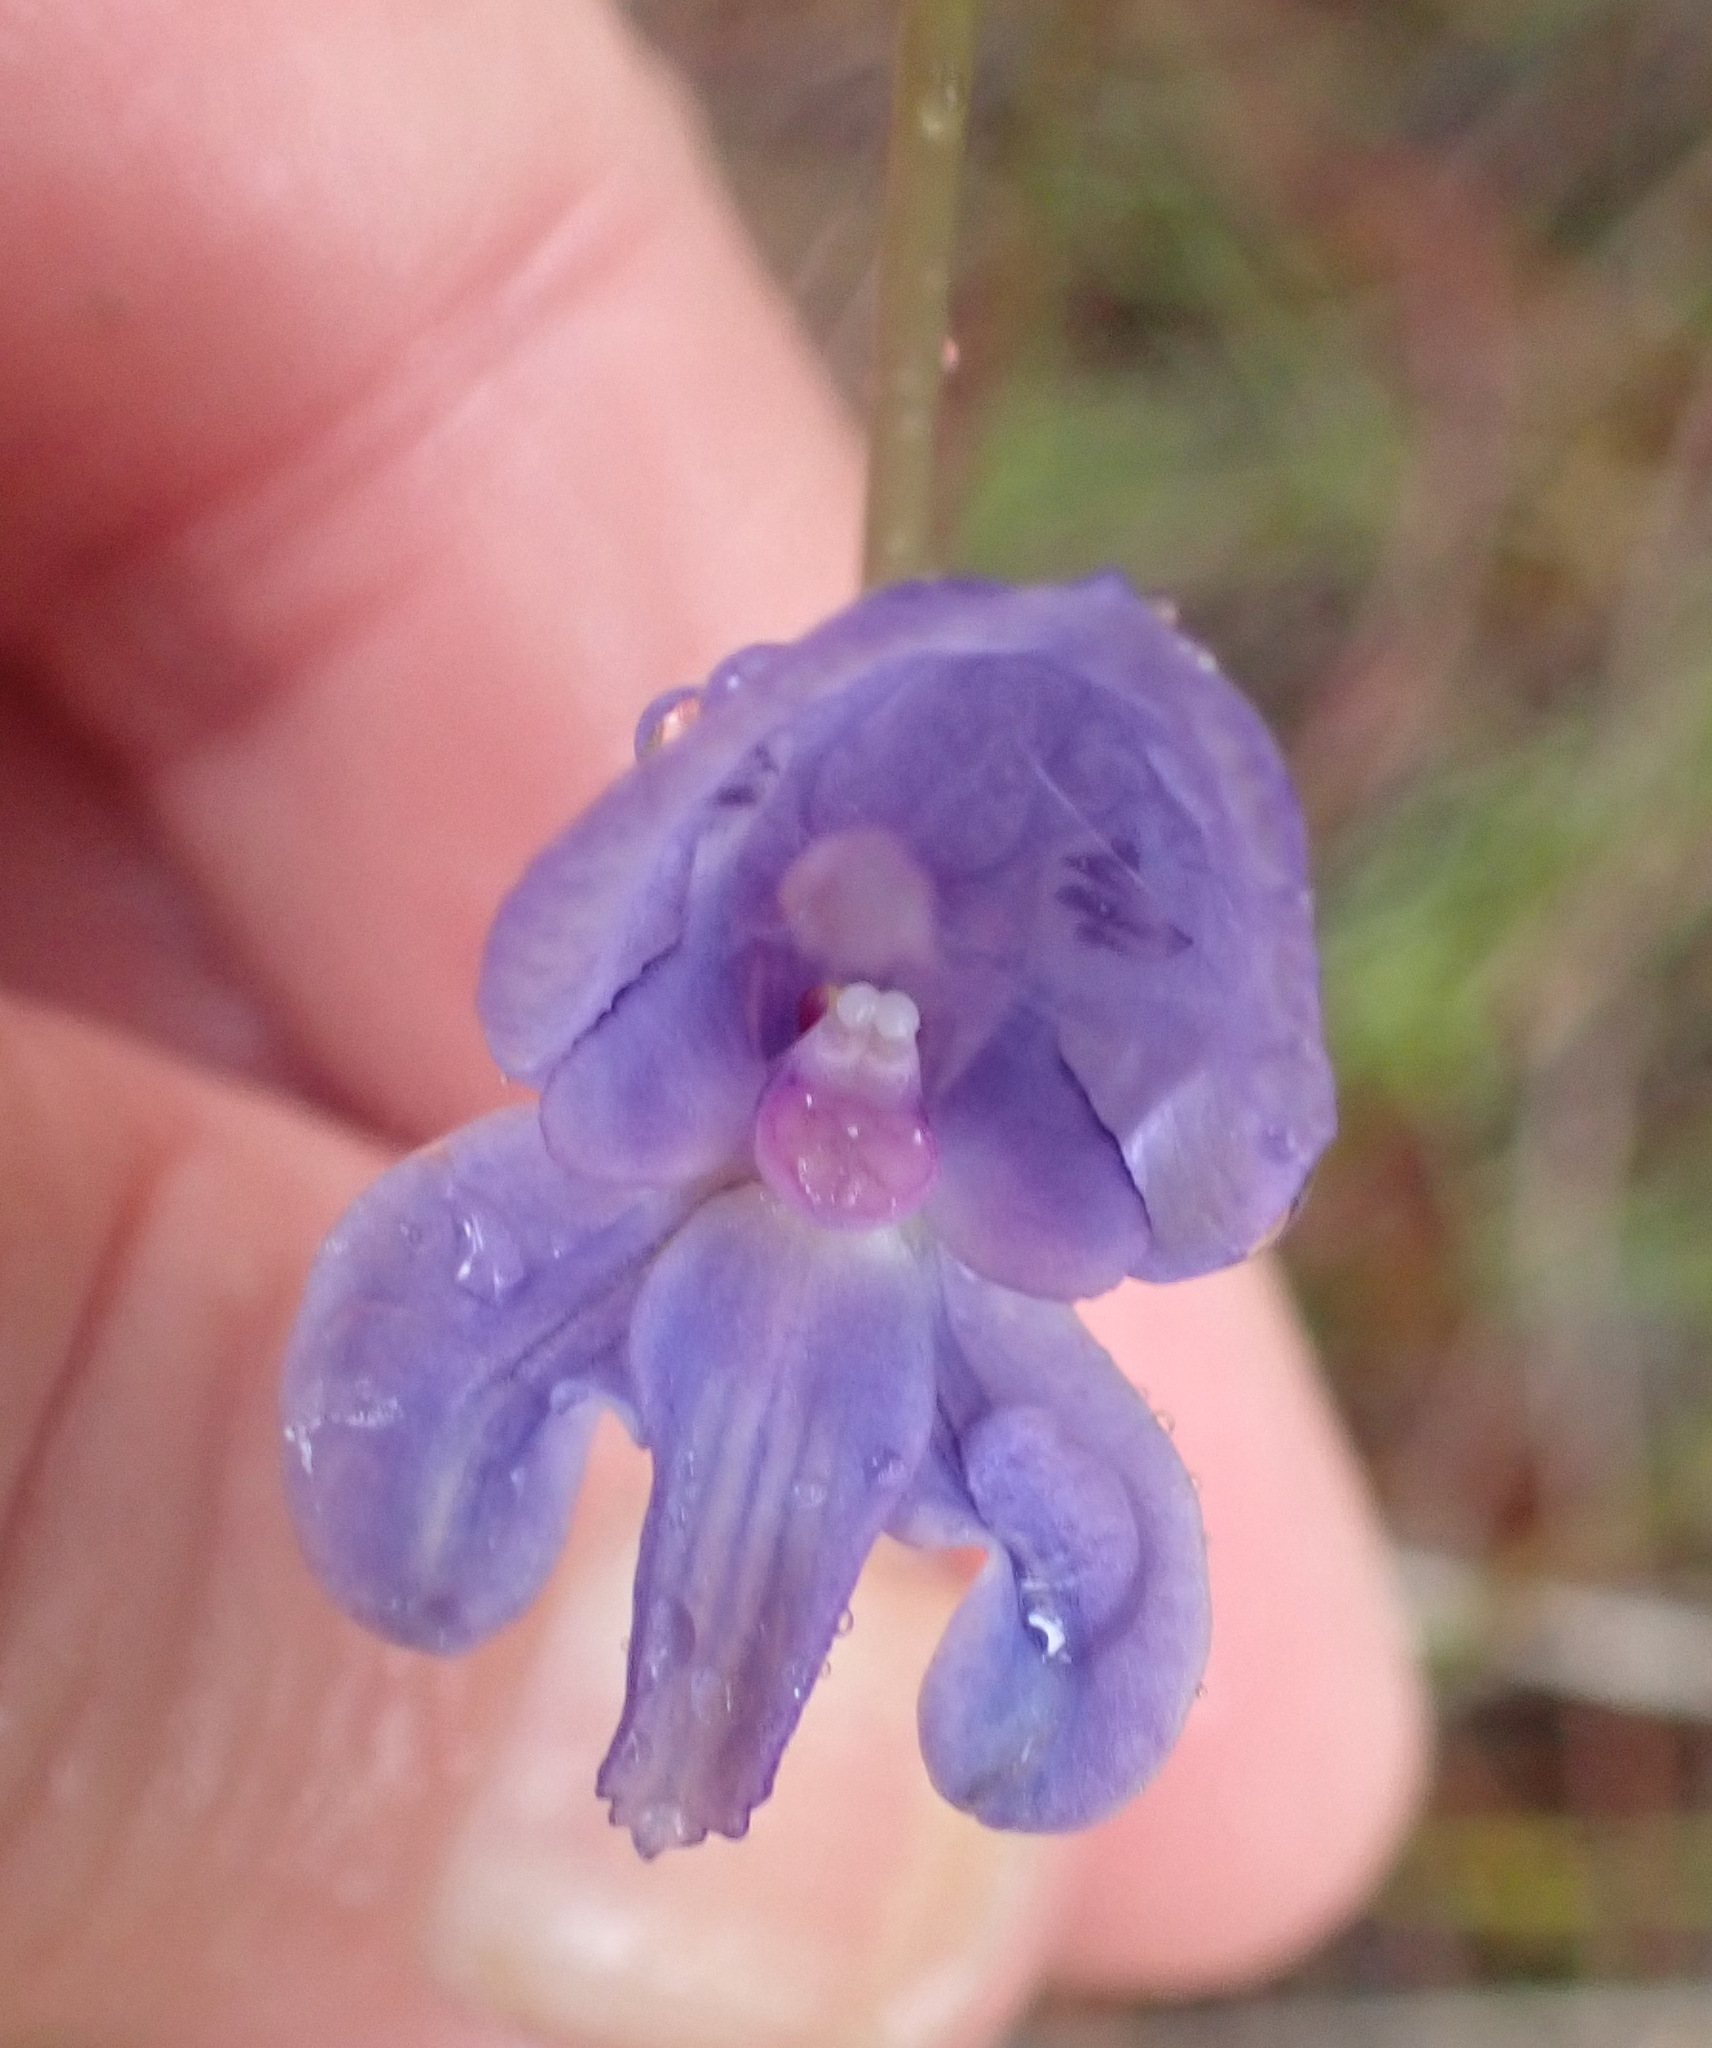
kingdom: Plantae
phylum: Tracheophyta
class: Liliopsida
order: Asparagales
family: Orchidaceae
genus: Disa
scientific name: Disa hians
